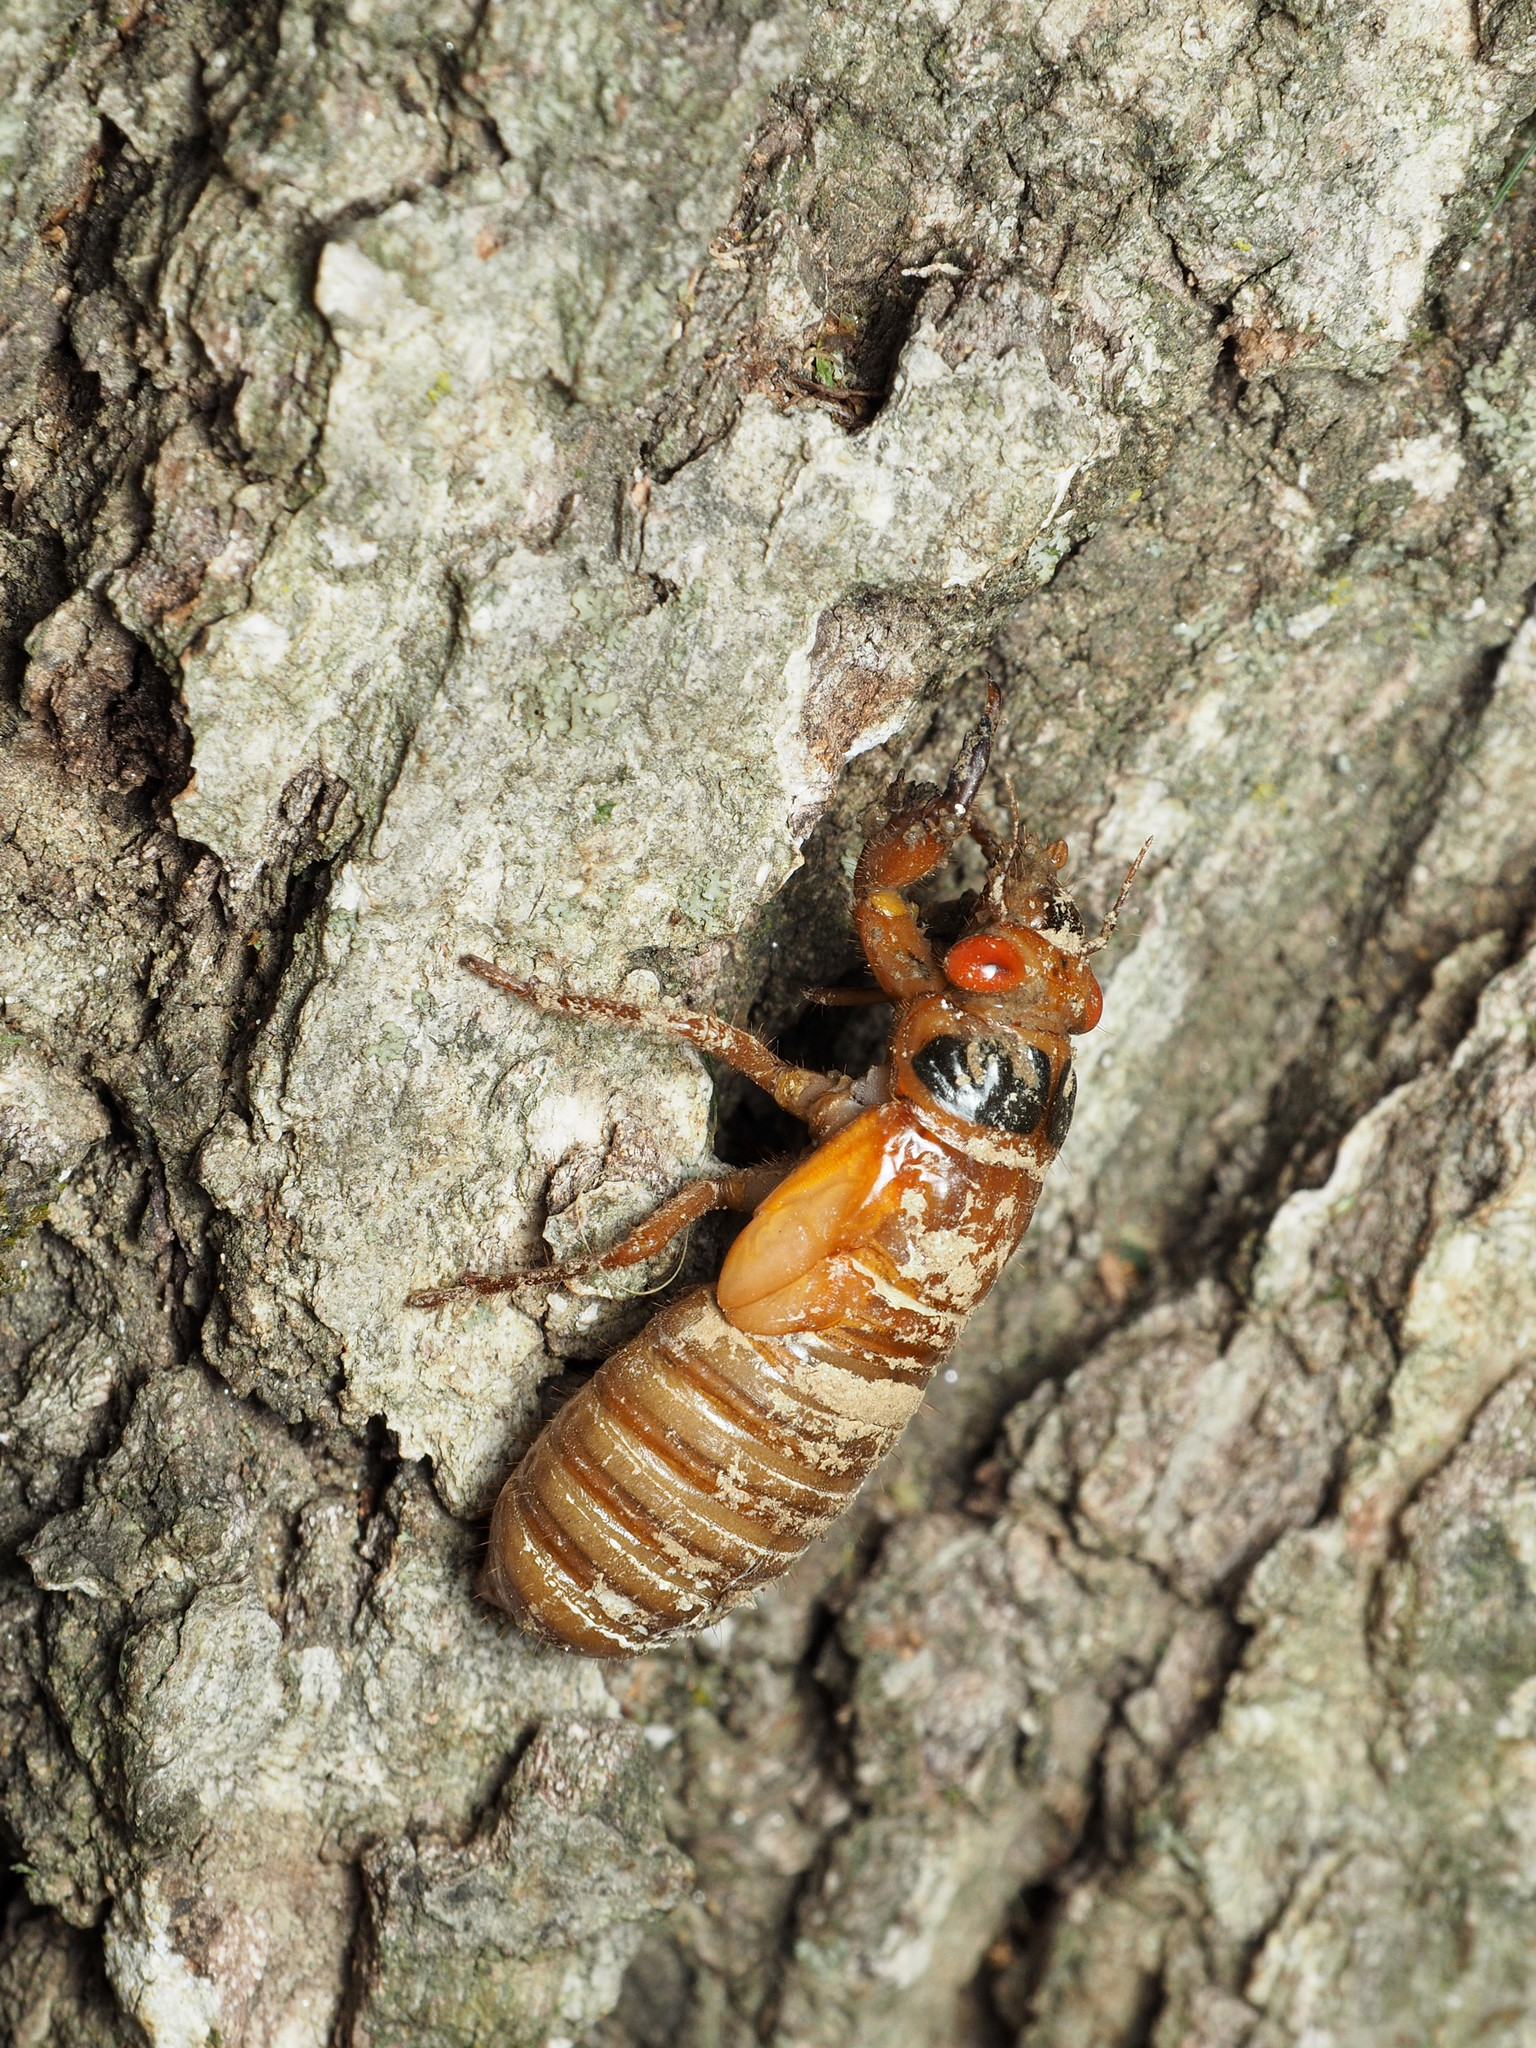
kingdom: Animalia
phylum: Arthropoda
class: Insecta
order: Hemiptera
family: Cicadidae
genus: Magicicada
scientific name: Magicicada
